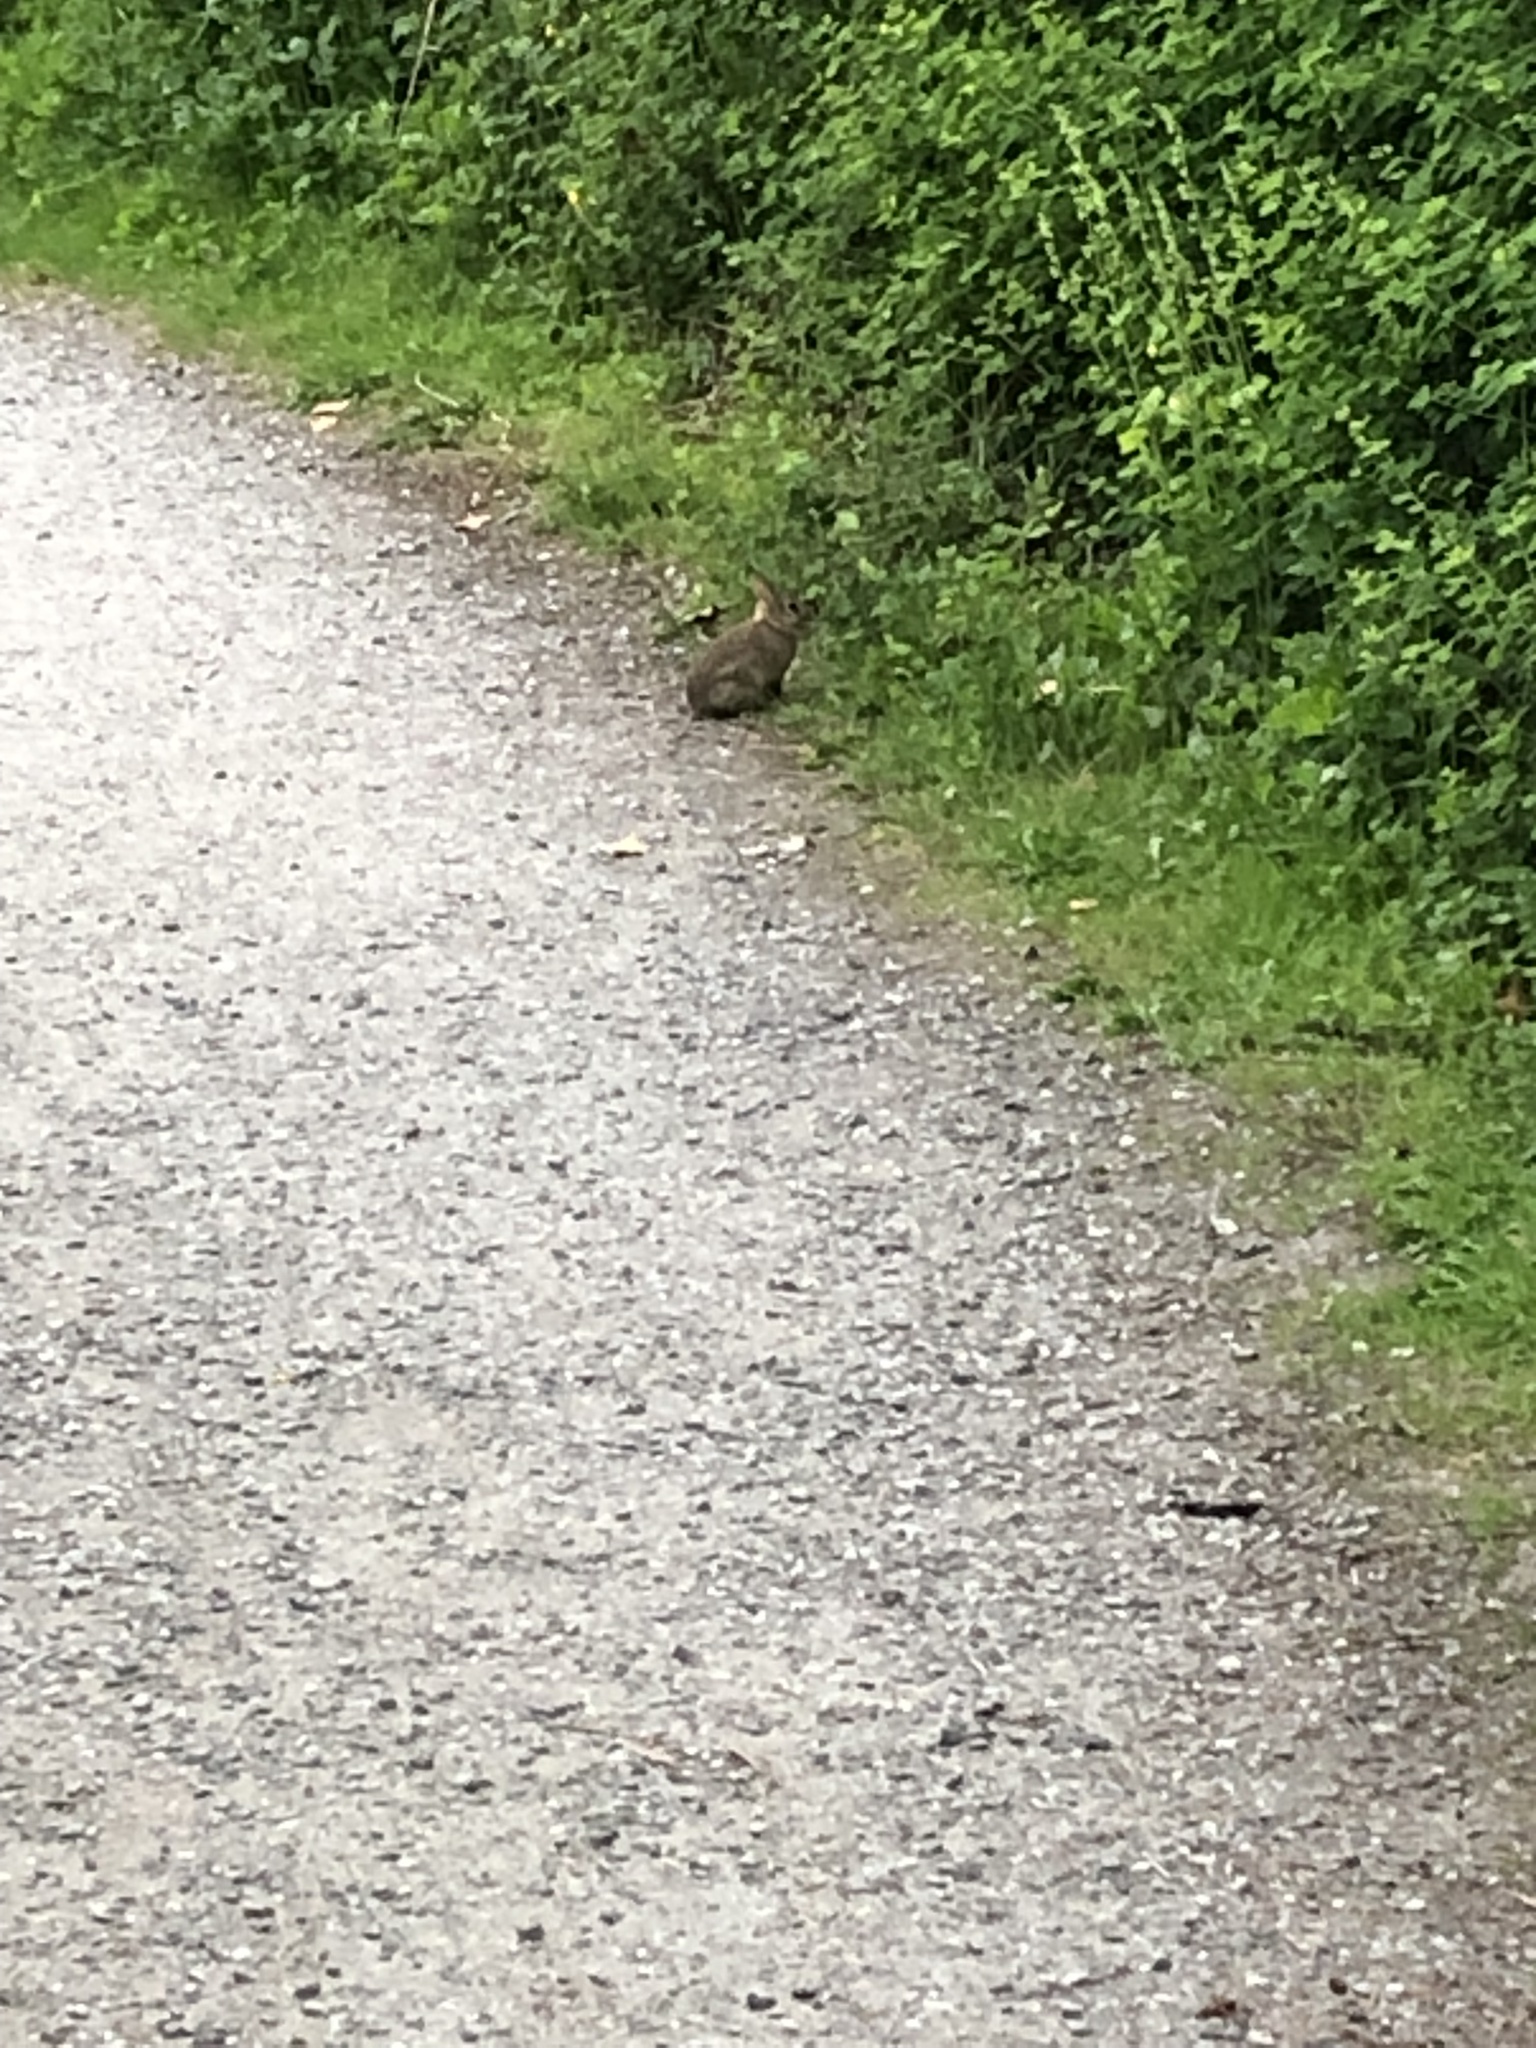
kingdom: Animalia
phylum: Chordata
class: Mammalia
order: Lagomorpha
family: Leporidae
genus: Sylvilagus
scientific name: Sylvilagus floridanus
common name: Eastern cottontail
